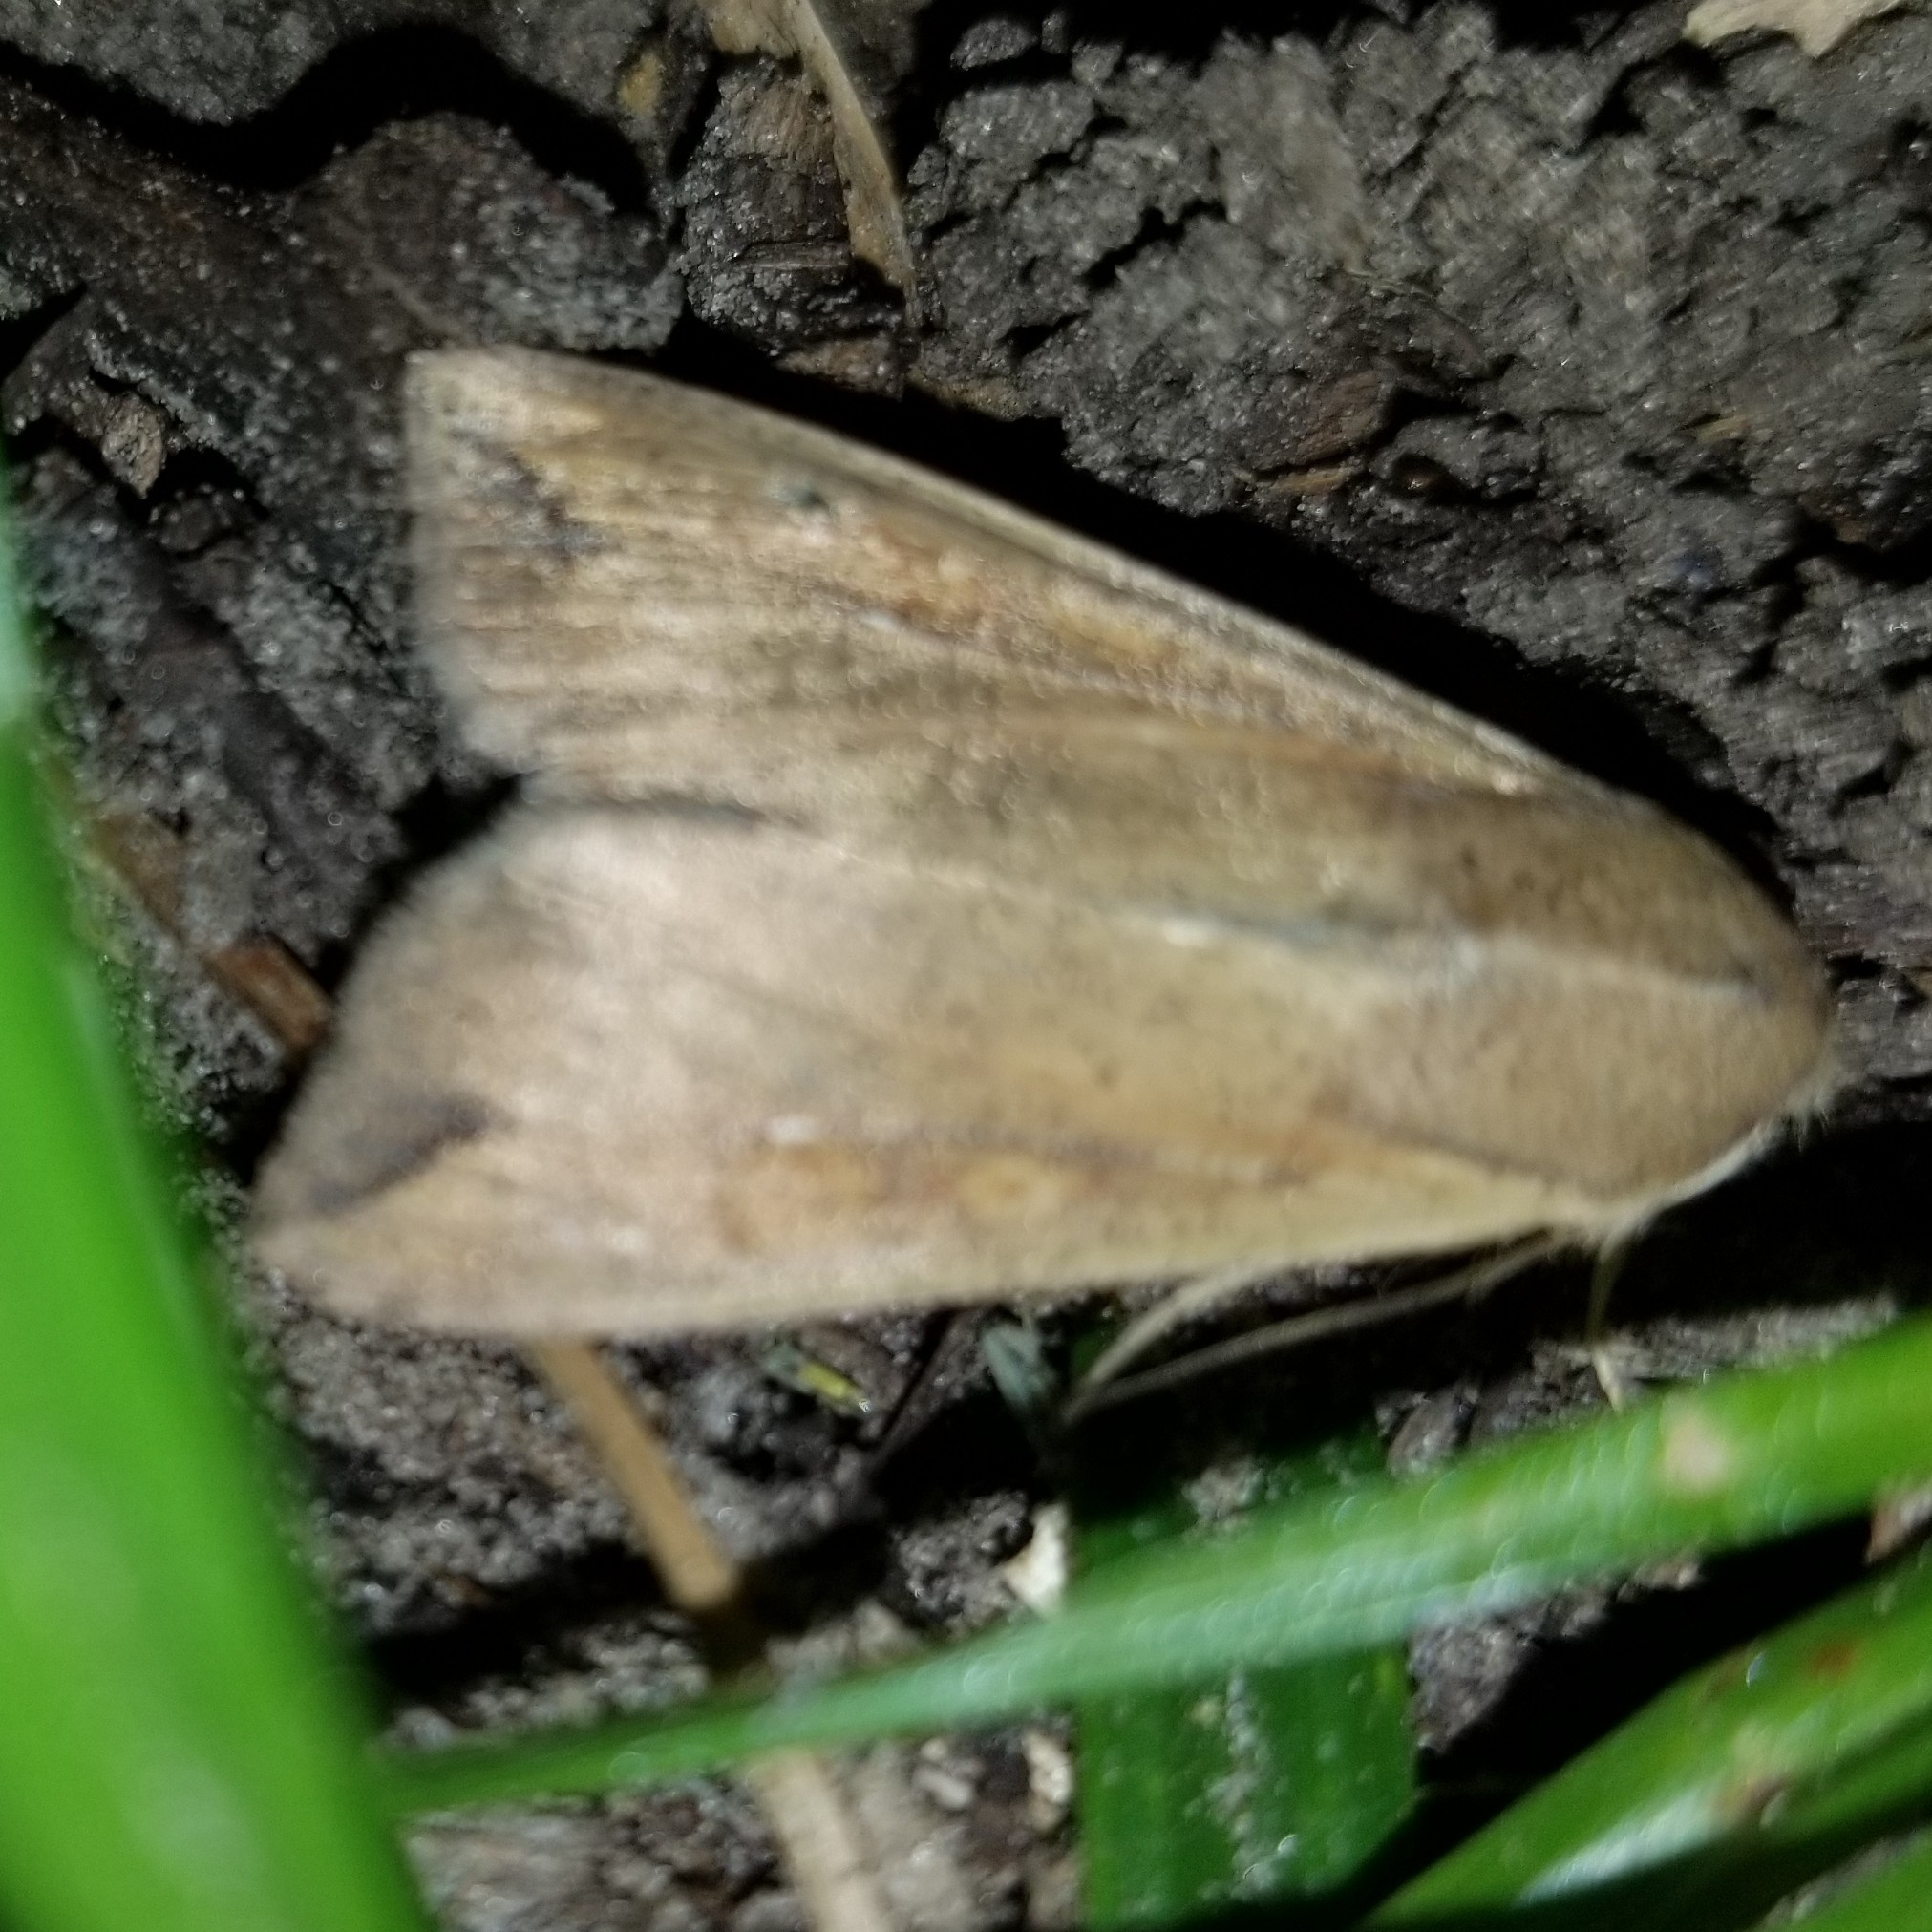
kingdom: Animalia
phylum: Arthropoda
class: Insecta
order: Lepidoptera
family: Noctuidae
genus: Mythimna
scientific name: Mythimna unipuncta
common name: White-speck
